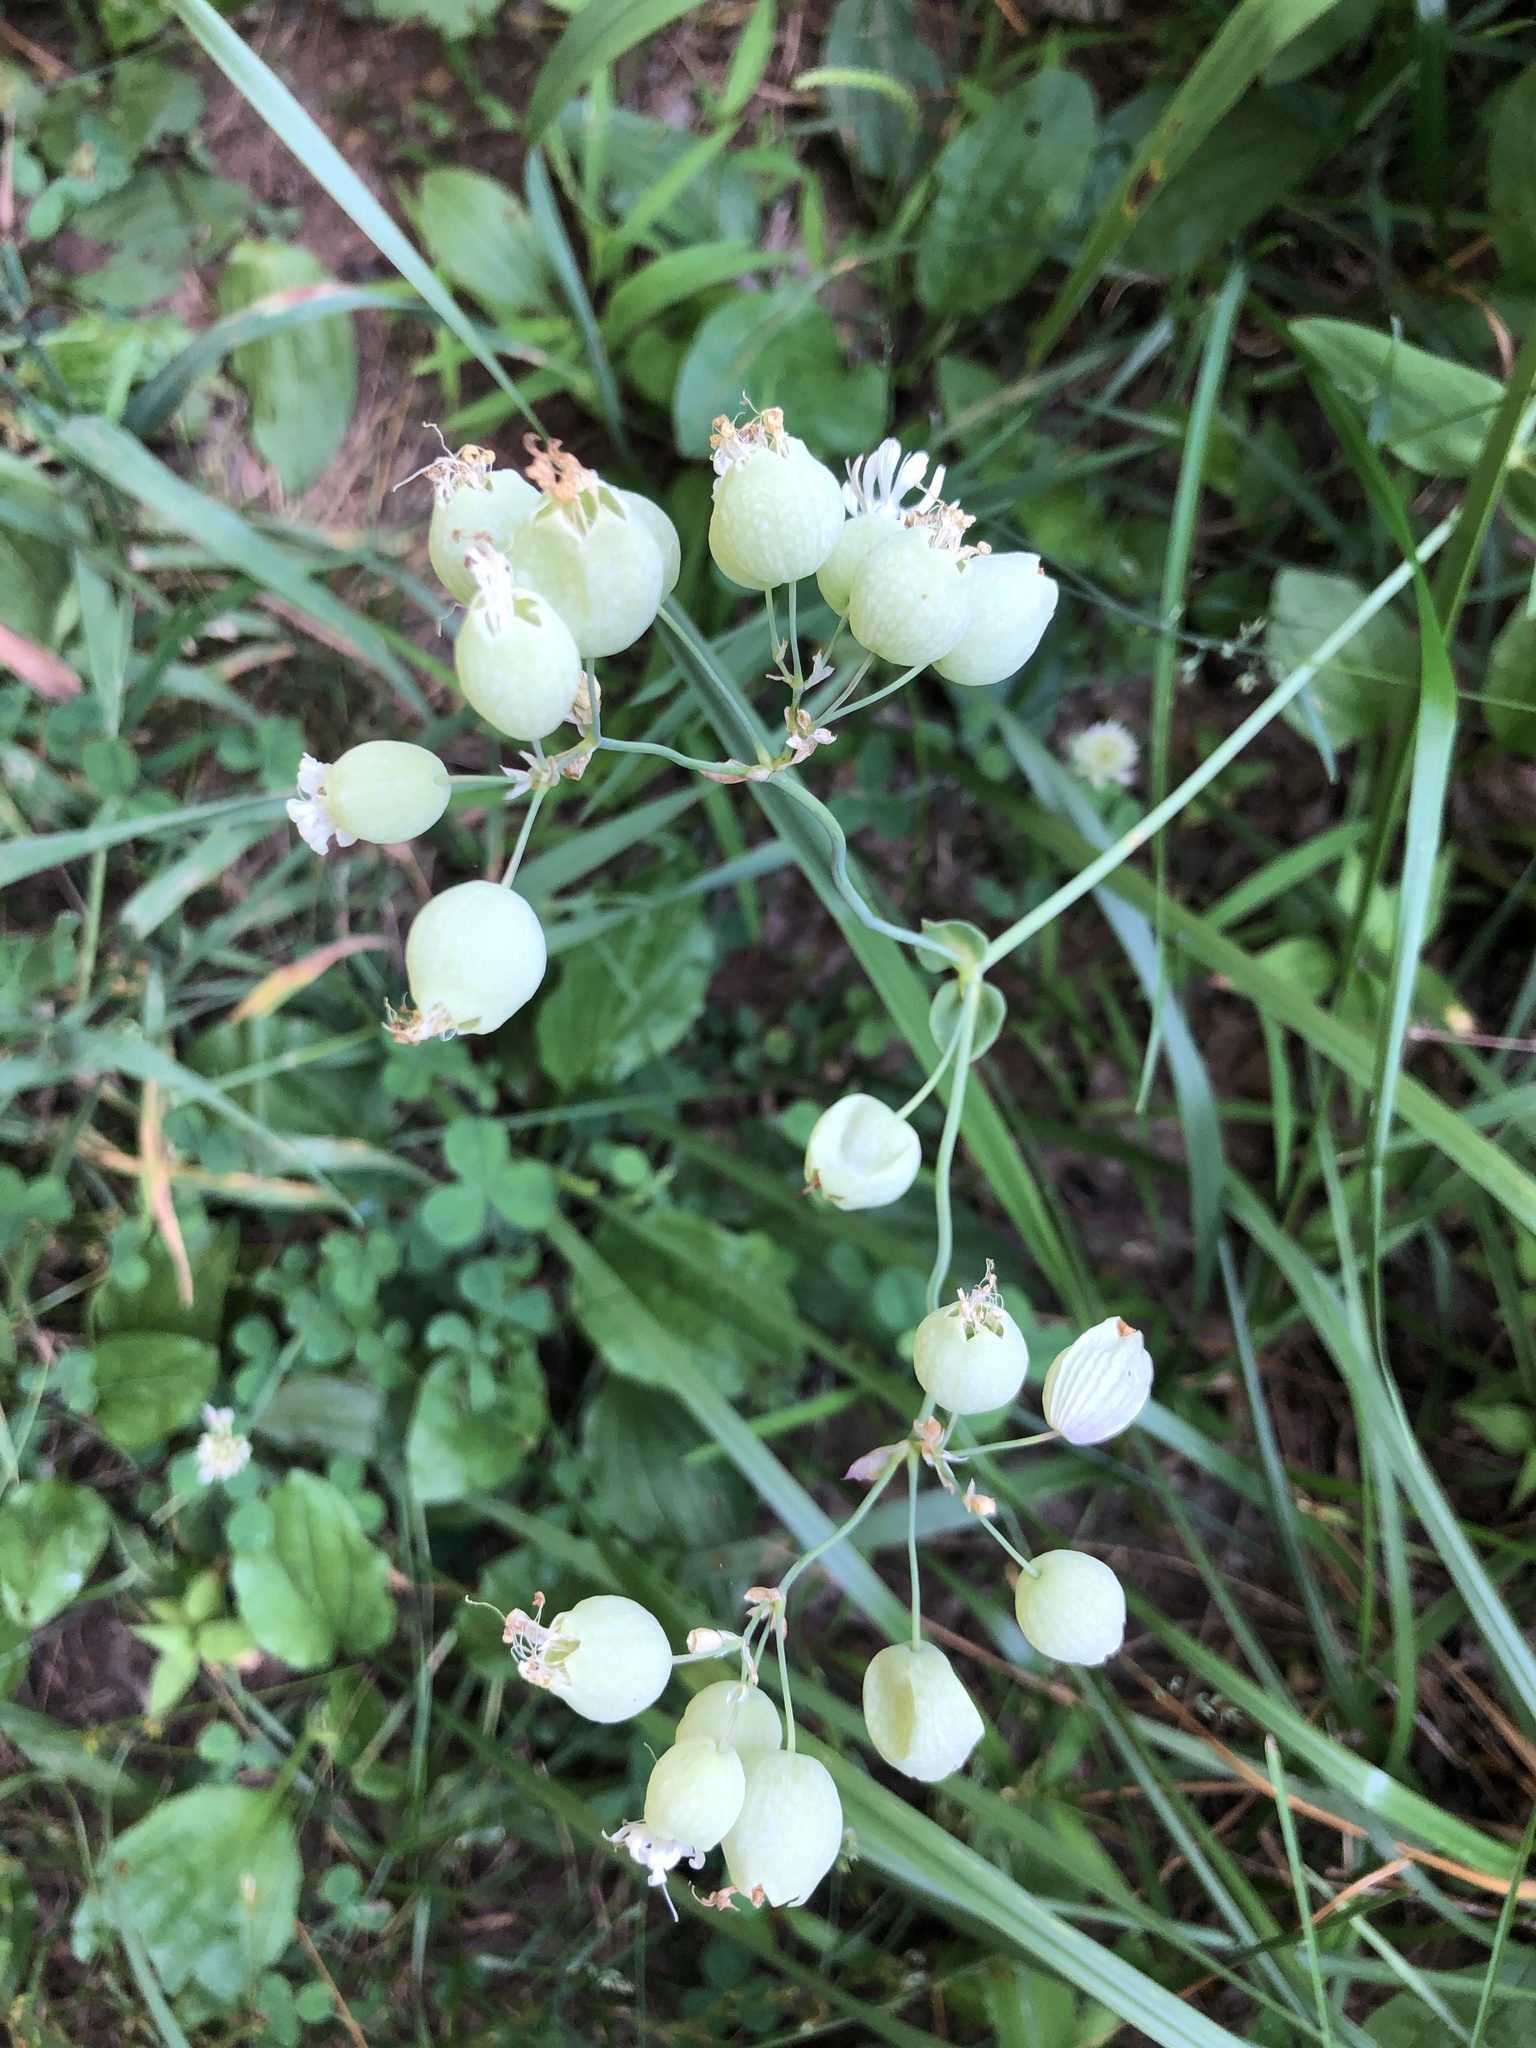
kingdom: Plantae
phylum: Tracheophyta
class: Magnoliopsida
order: Caryophyllales
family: Caryophyllaceae
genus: Silene
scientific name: Silene vulgaris
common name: Bladder campion
